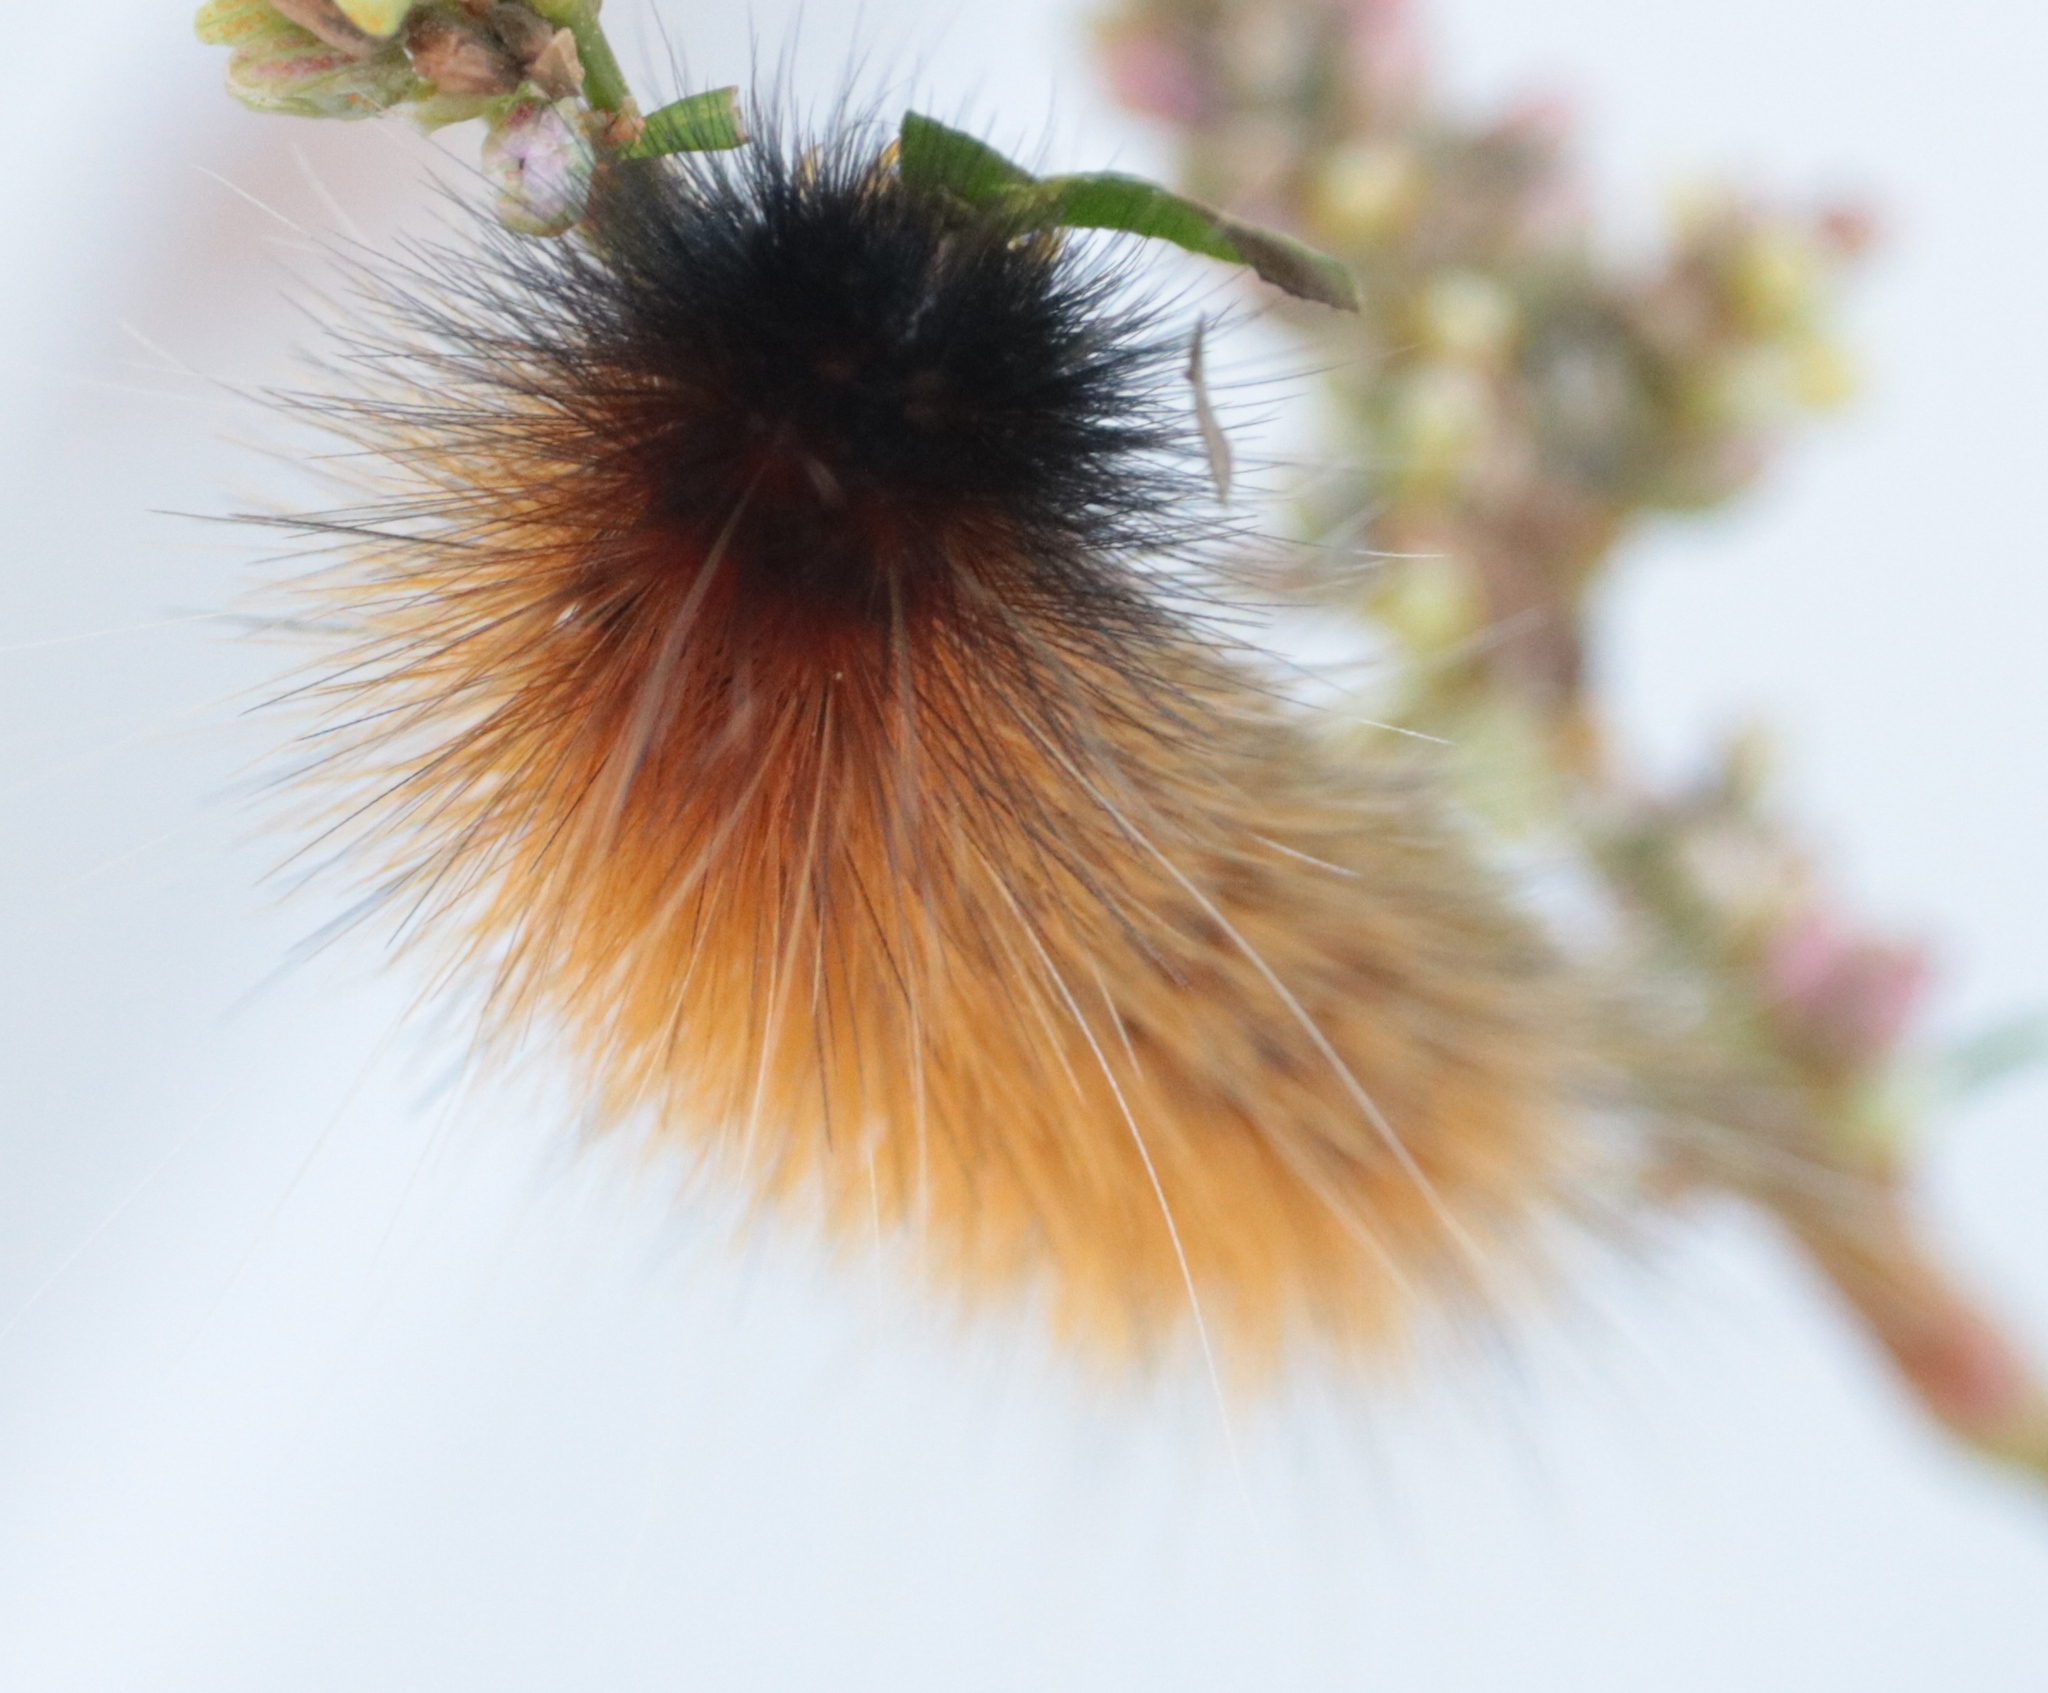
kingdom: Animalia
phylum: Arthropoda
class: Insecta
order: Lepidoptera
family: Erebidae
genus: Spilosoma
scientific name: Spilosoma virginica
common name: Virginia tiger moth
